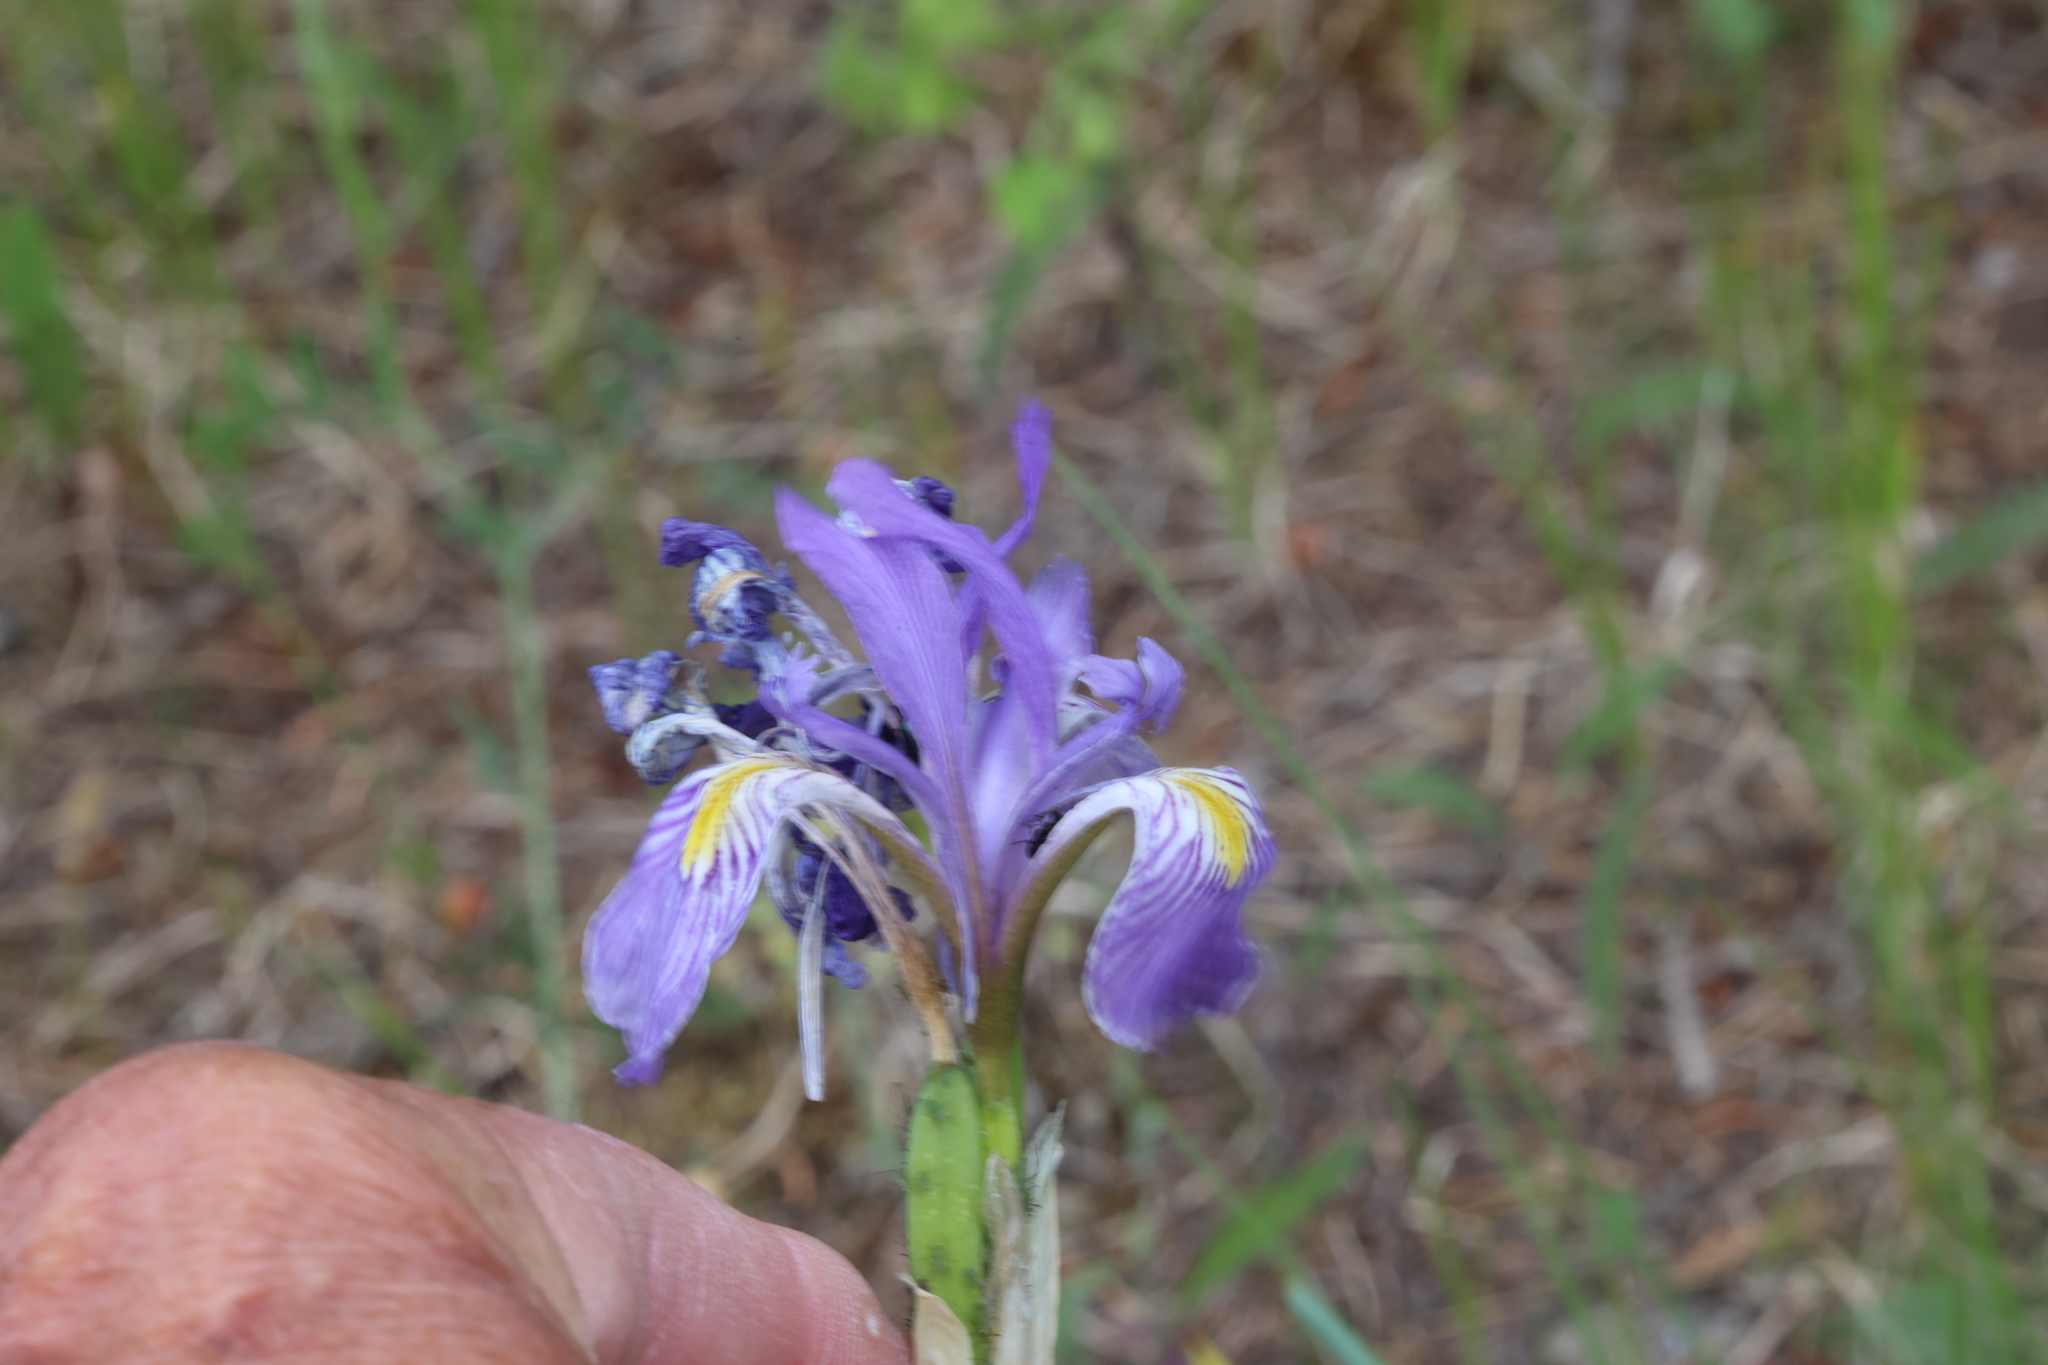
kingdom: Plantae
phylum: Tracheophyta
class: Liliopsida
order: Asparagales
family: Iridaceae
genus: Iris
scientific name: Iris missouriensis
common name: Rocky mountain iris
